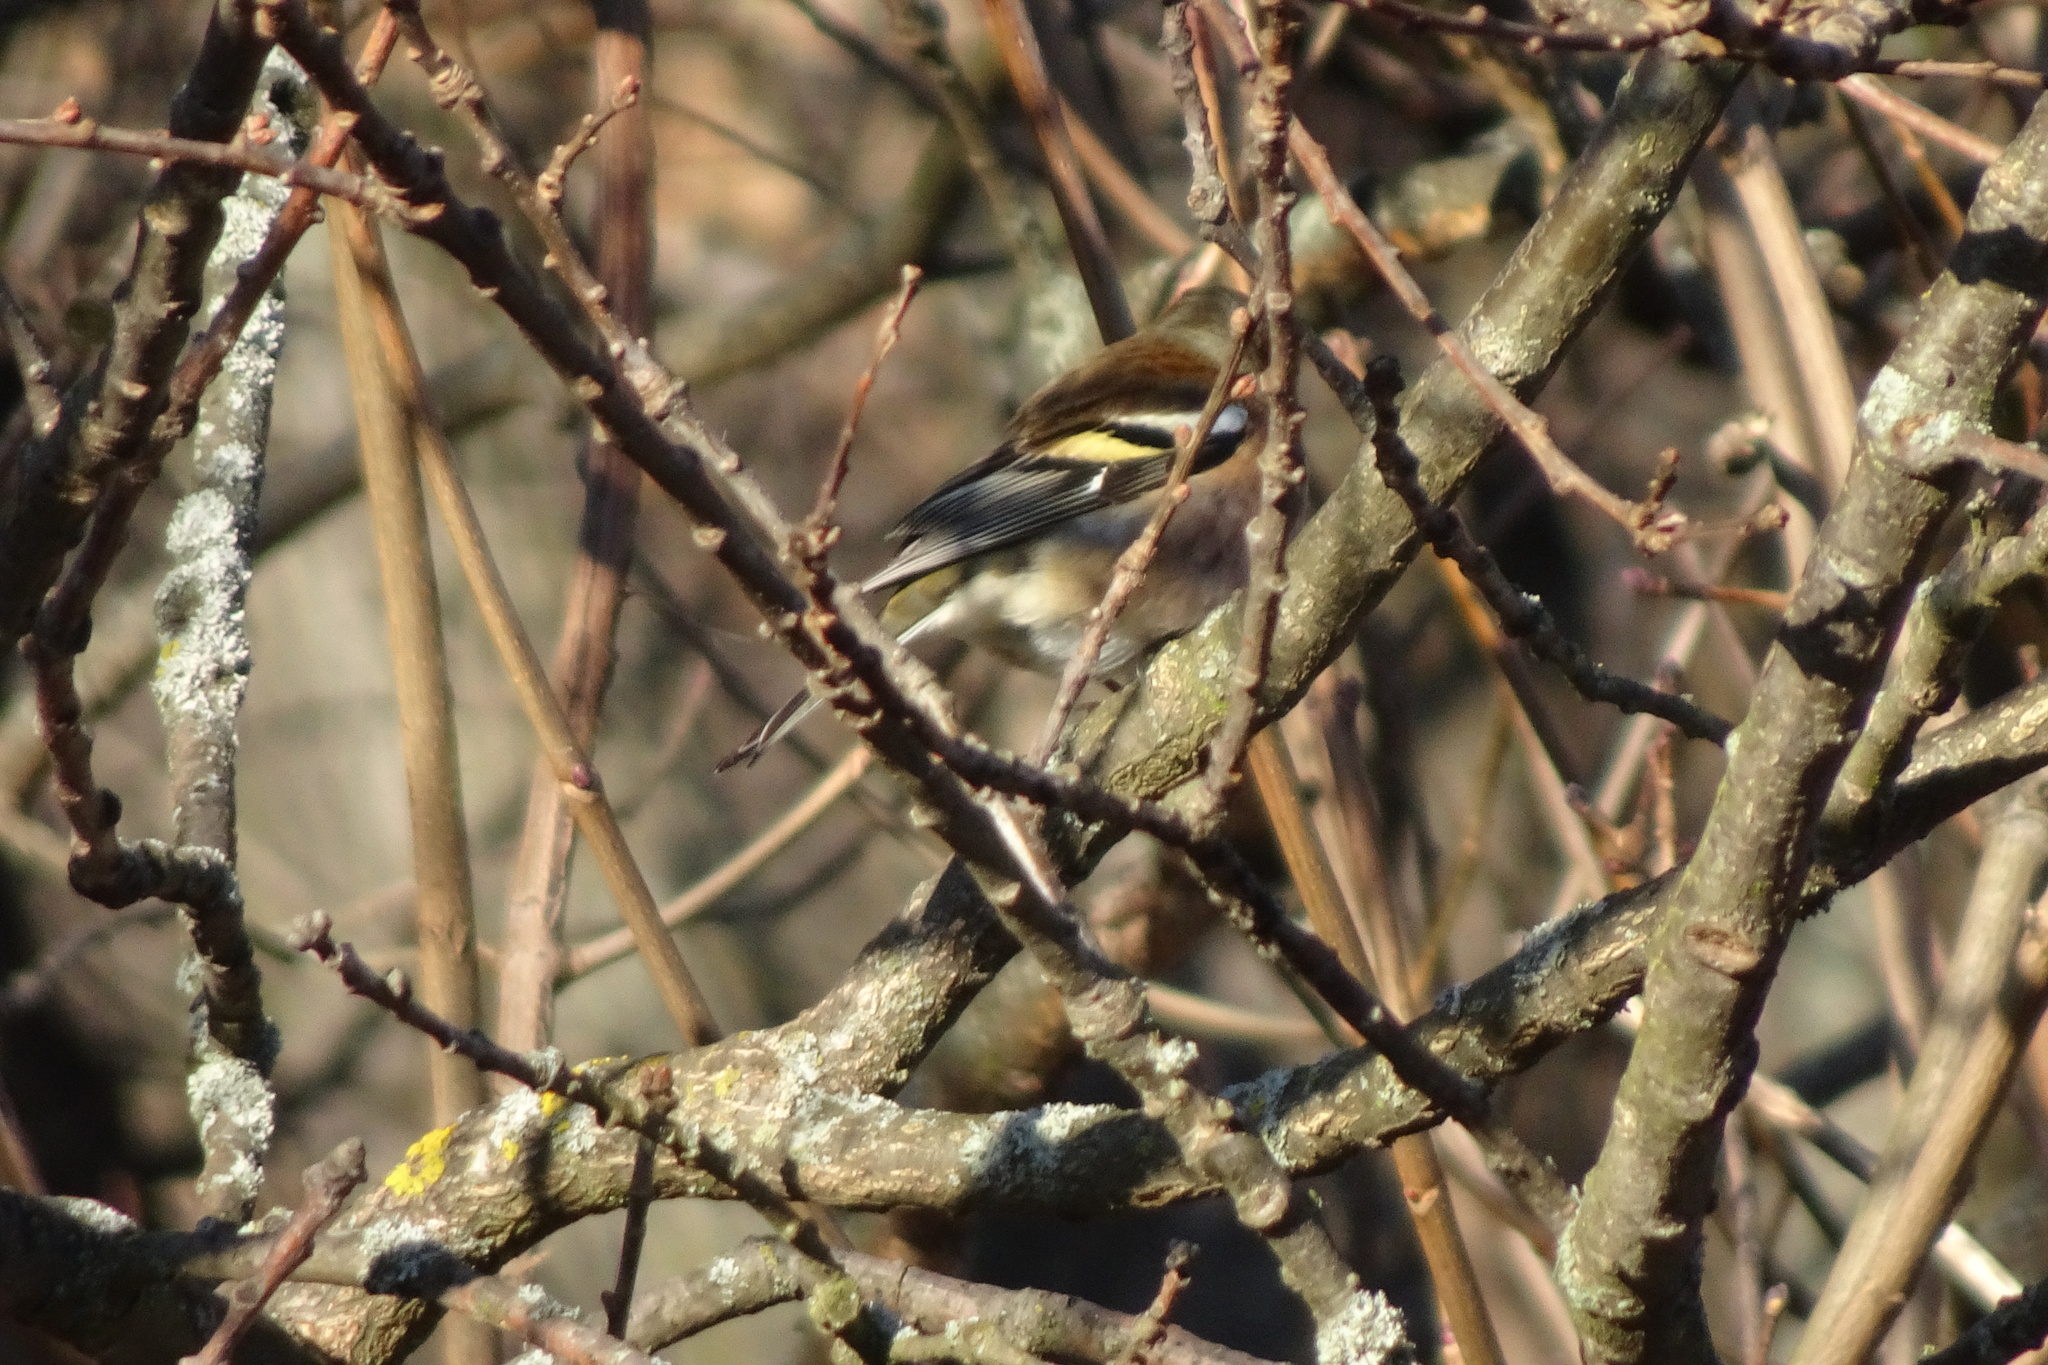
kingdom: Animalia
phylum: Chordata
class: Aves
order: Passeriformes
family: Fringillidae
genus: Fringilla
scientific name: Fringilla coelebs
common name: Common chaffinch
